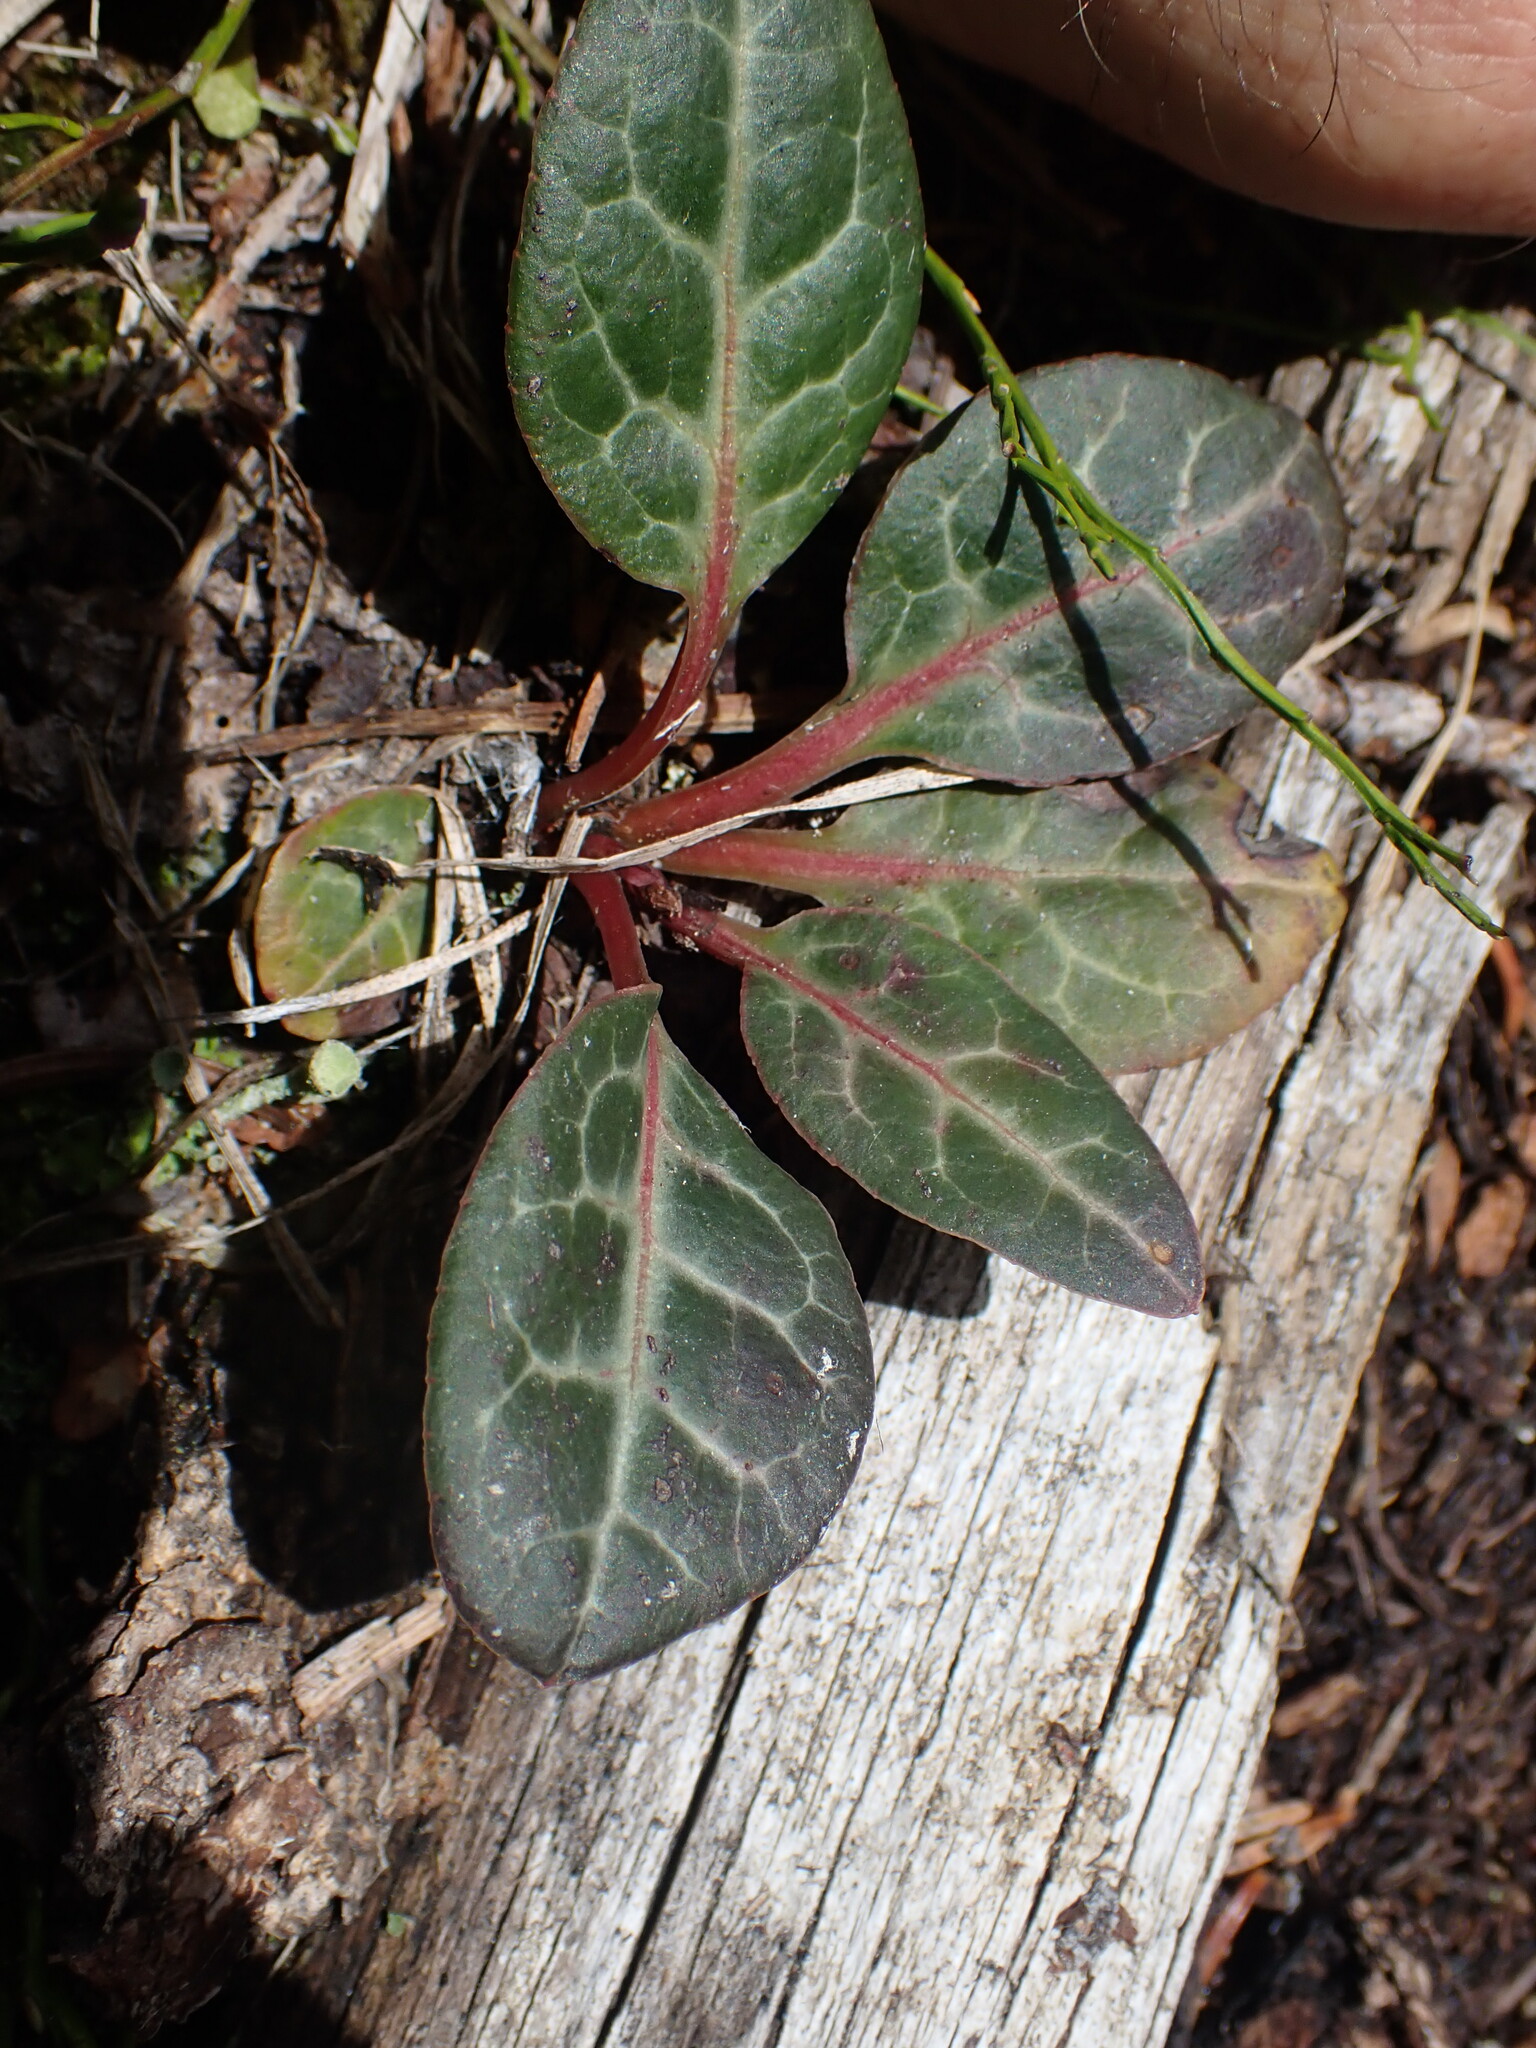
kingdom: Plantae
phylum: Tracheophyta
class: Magnoliopsida
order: Ericales
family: Ericaceae
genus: Pyrola
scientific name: Pyrola picta
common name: White-vein wintergreen
